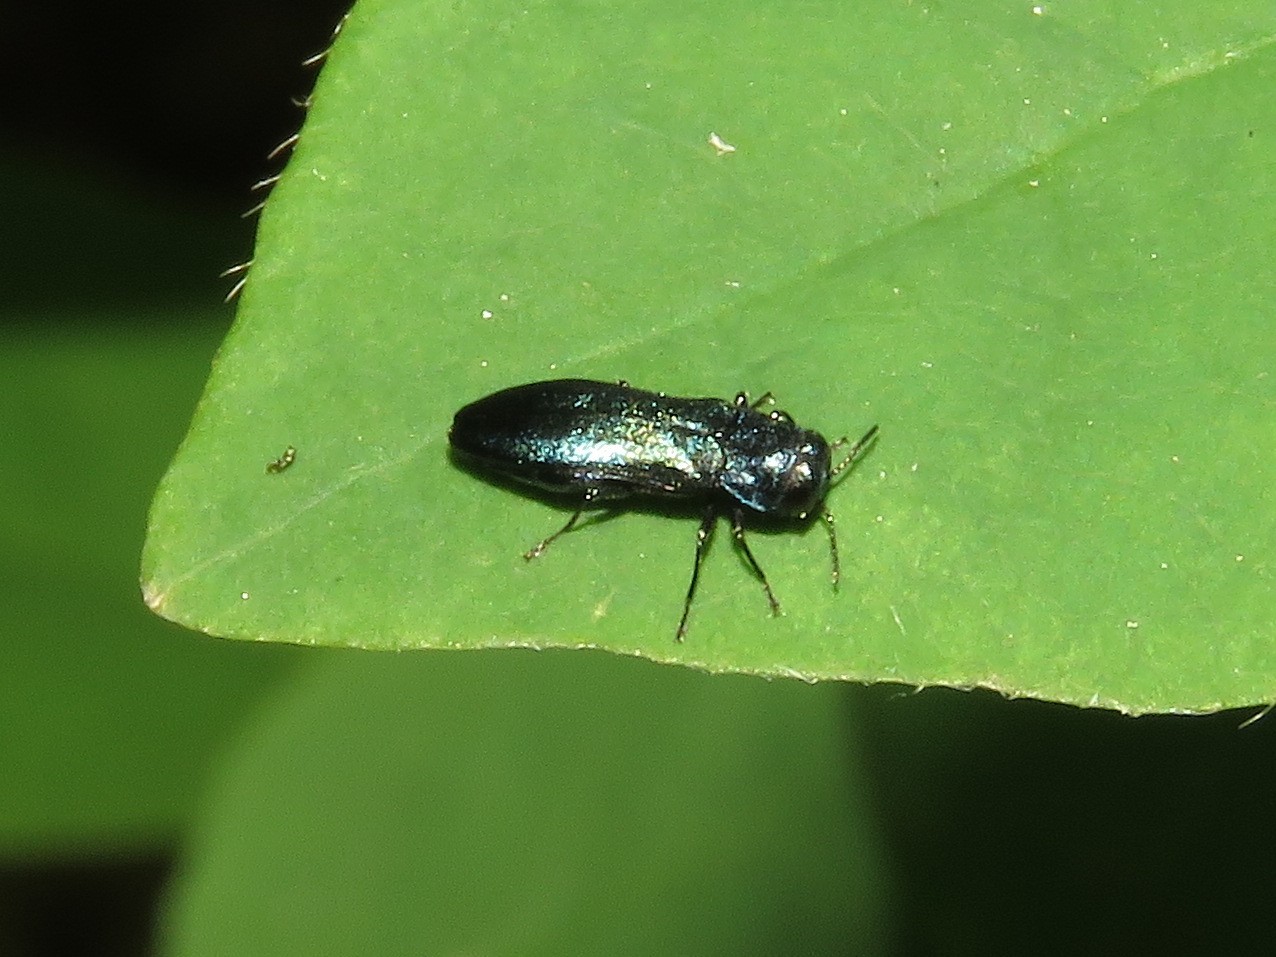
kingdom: Animalia
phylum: Arthropoda
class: Insecta
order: Coleoptera
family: Buprestidae
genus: Agrilus
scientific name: Agrilus cyanescens
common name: Bluish borer beetle
